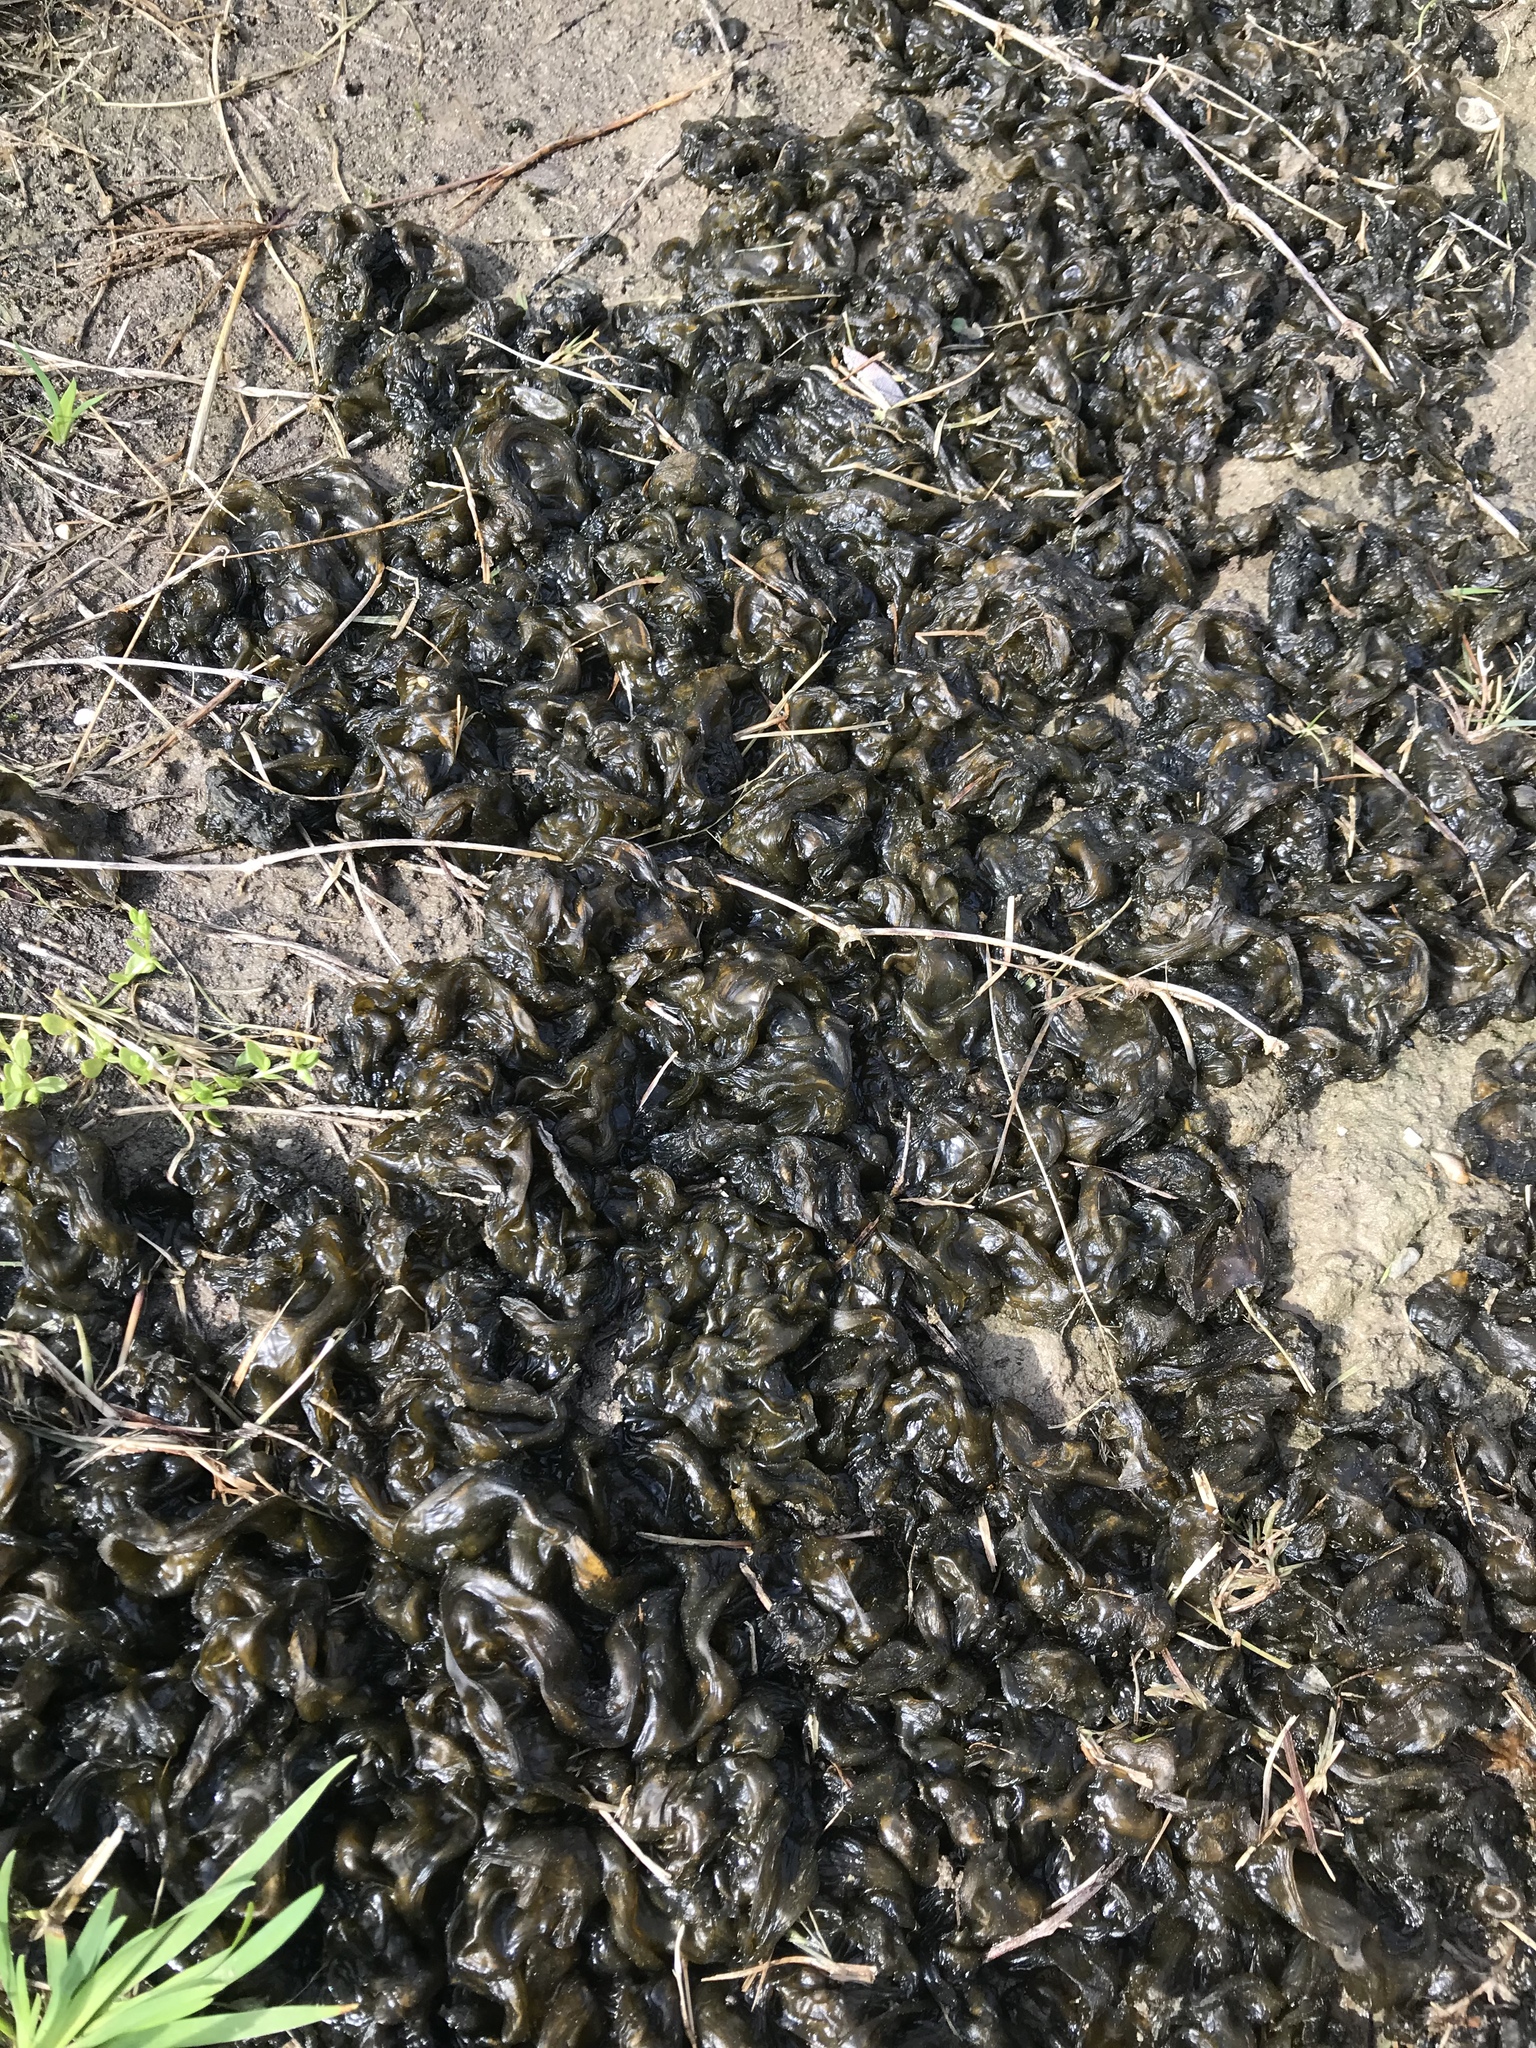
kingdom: Bacteria
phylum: Cyanobacteria
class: Cyanobacteriia
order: Cyanobacteriales
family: Nostocaceae
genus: Nostoc
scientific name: Nostoc commune
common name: Star jelly
